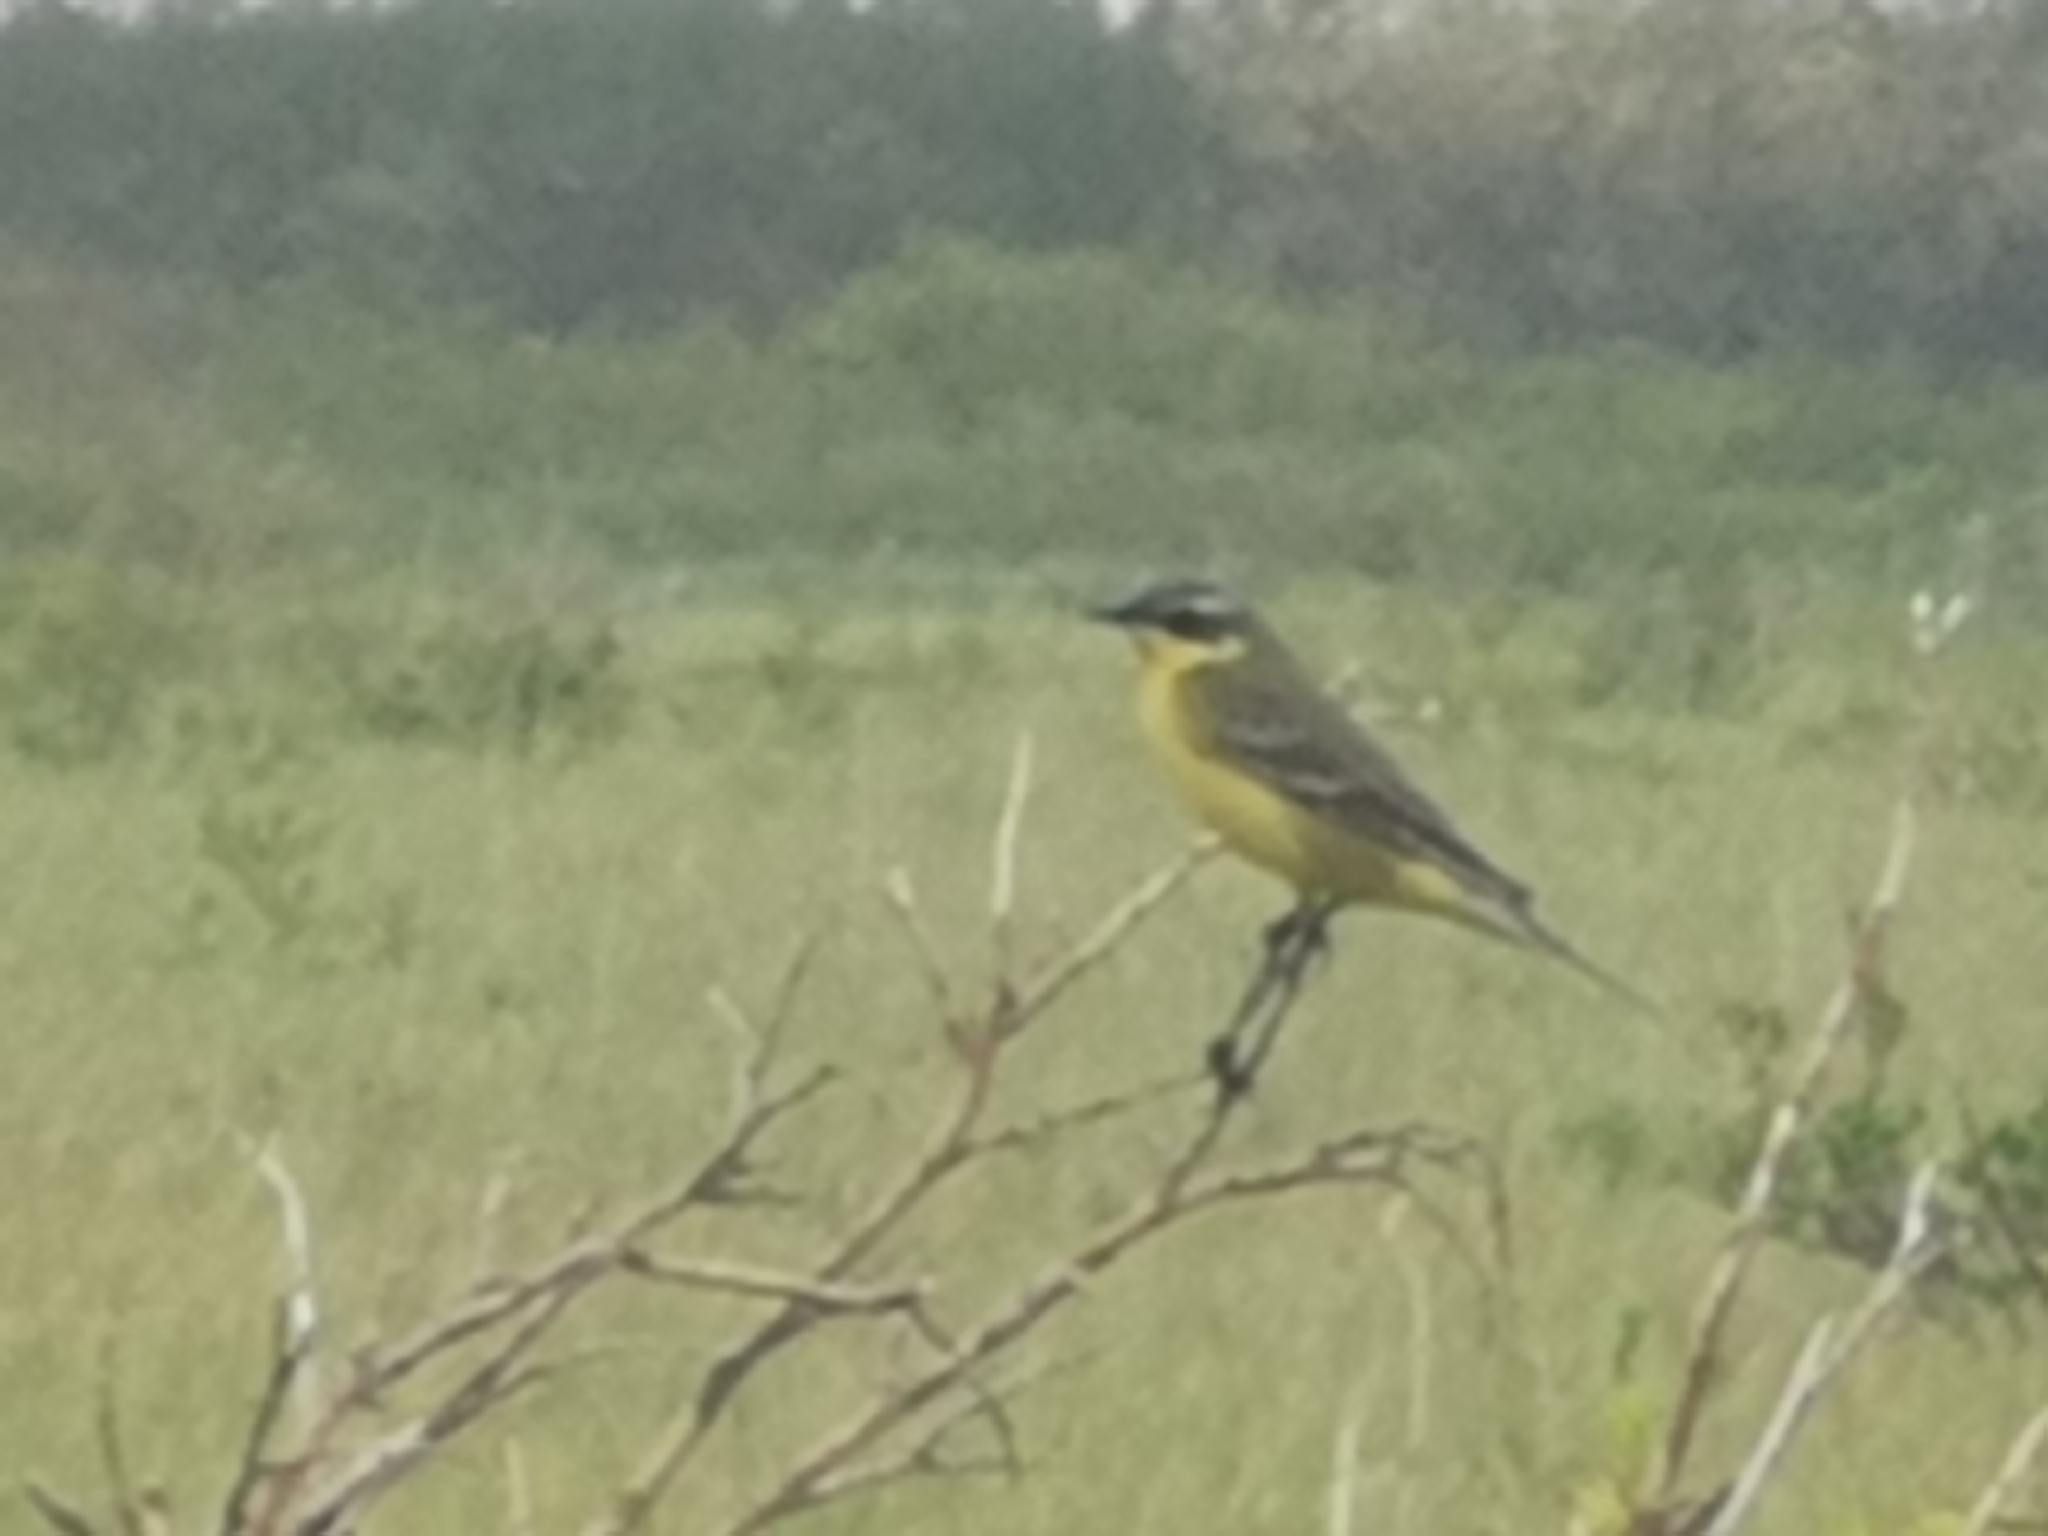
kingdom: Animalia
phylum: Chordata
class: Aves
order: Passeriformes
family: Motacillidae
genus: Motacilla
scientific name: Motacilla tschutschensis
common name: Eastern yellow wagtail
